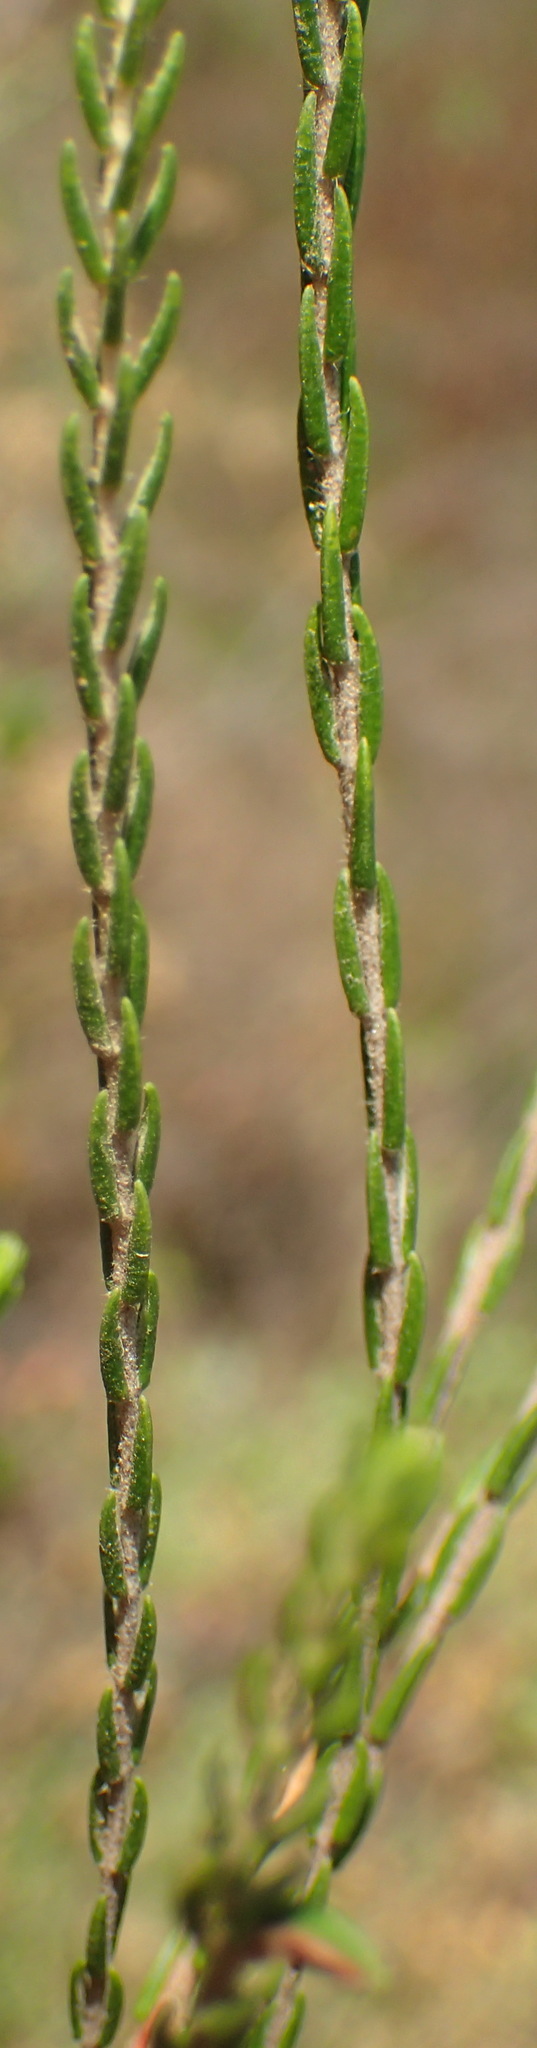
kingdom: Plantae
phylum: Tracheophyta
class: Magnoliopsida
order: Malvales
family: Thymelaeaceae
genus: Passerina
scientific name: Passerina corymbosa
